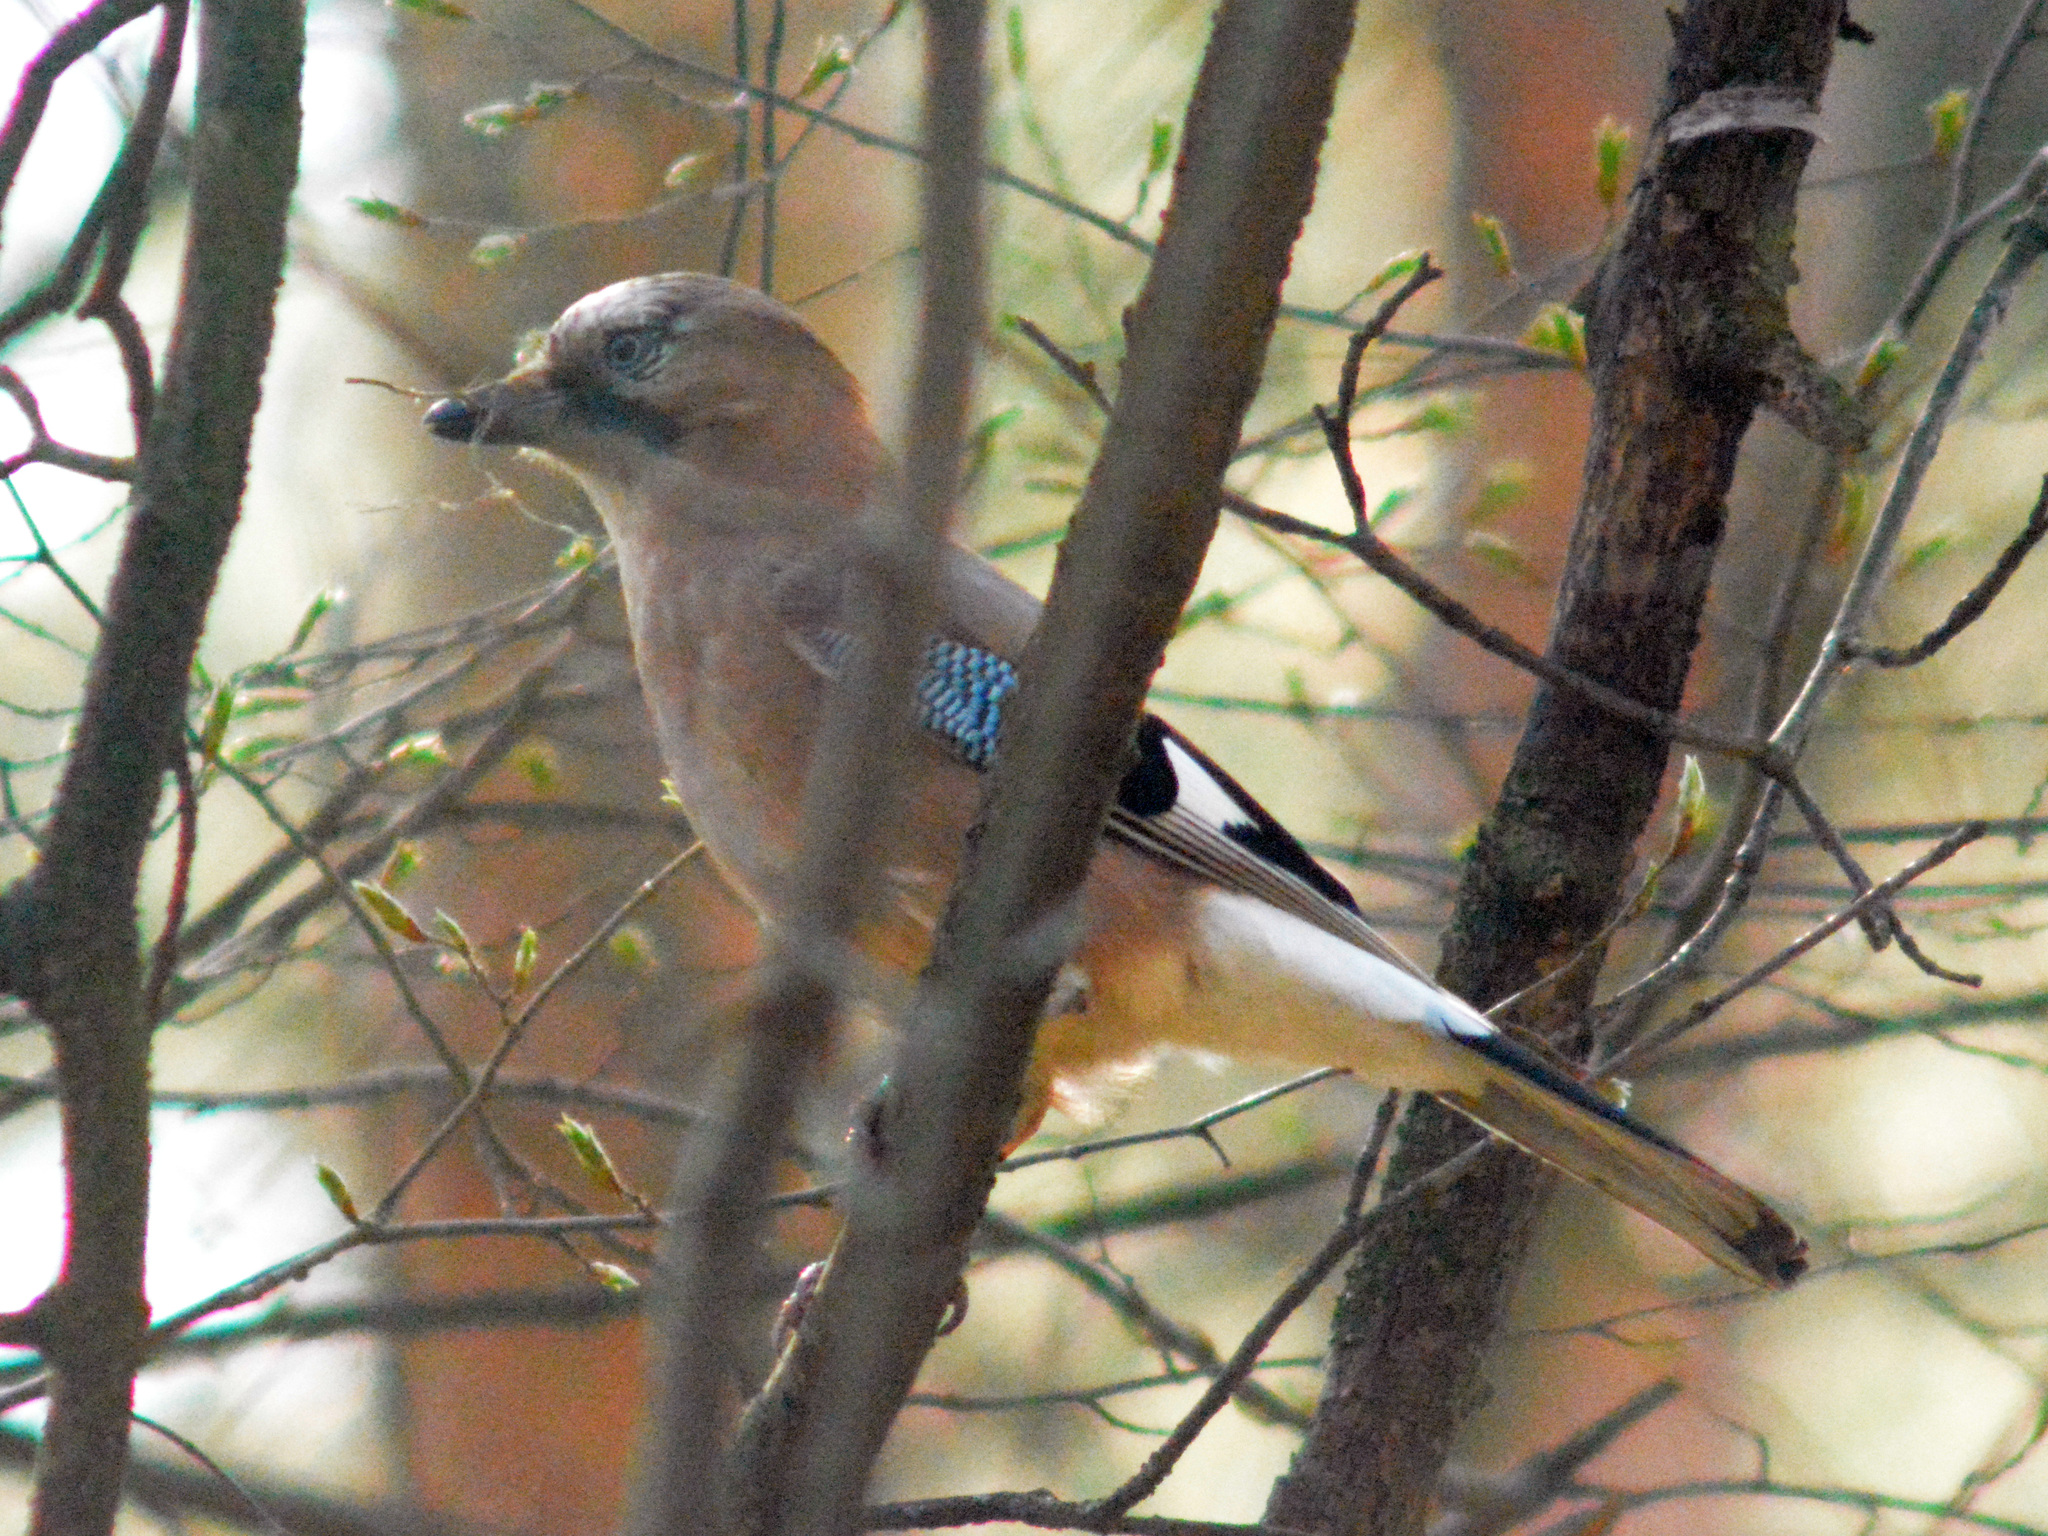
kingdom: Animalia
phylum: Chordata
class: Aves
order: Passeriformes
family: Corvidae
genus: Garrulus
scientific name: Garrulus glandarius
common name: Eurasian jay
